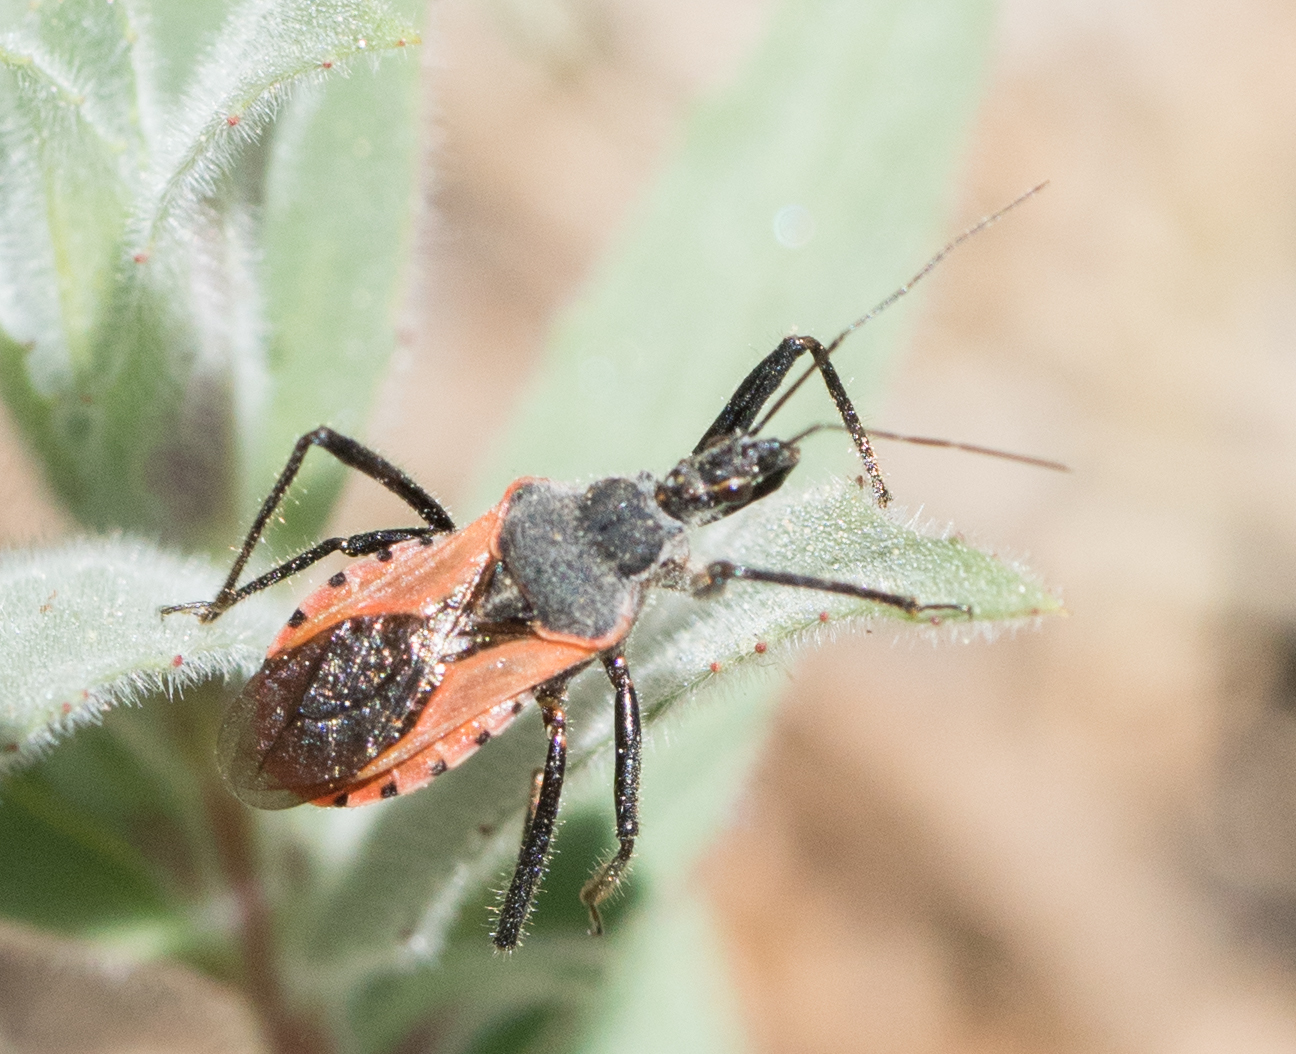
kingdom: Animalia
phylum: Arthropoda
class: Insecta
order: Hemiptera
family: Reduviidae
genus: Rhynocoris
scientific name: Rhynocoris ventralis
